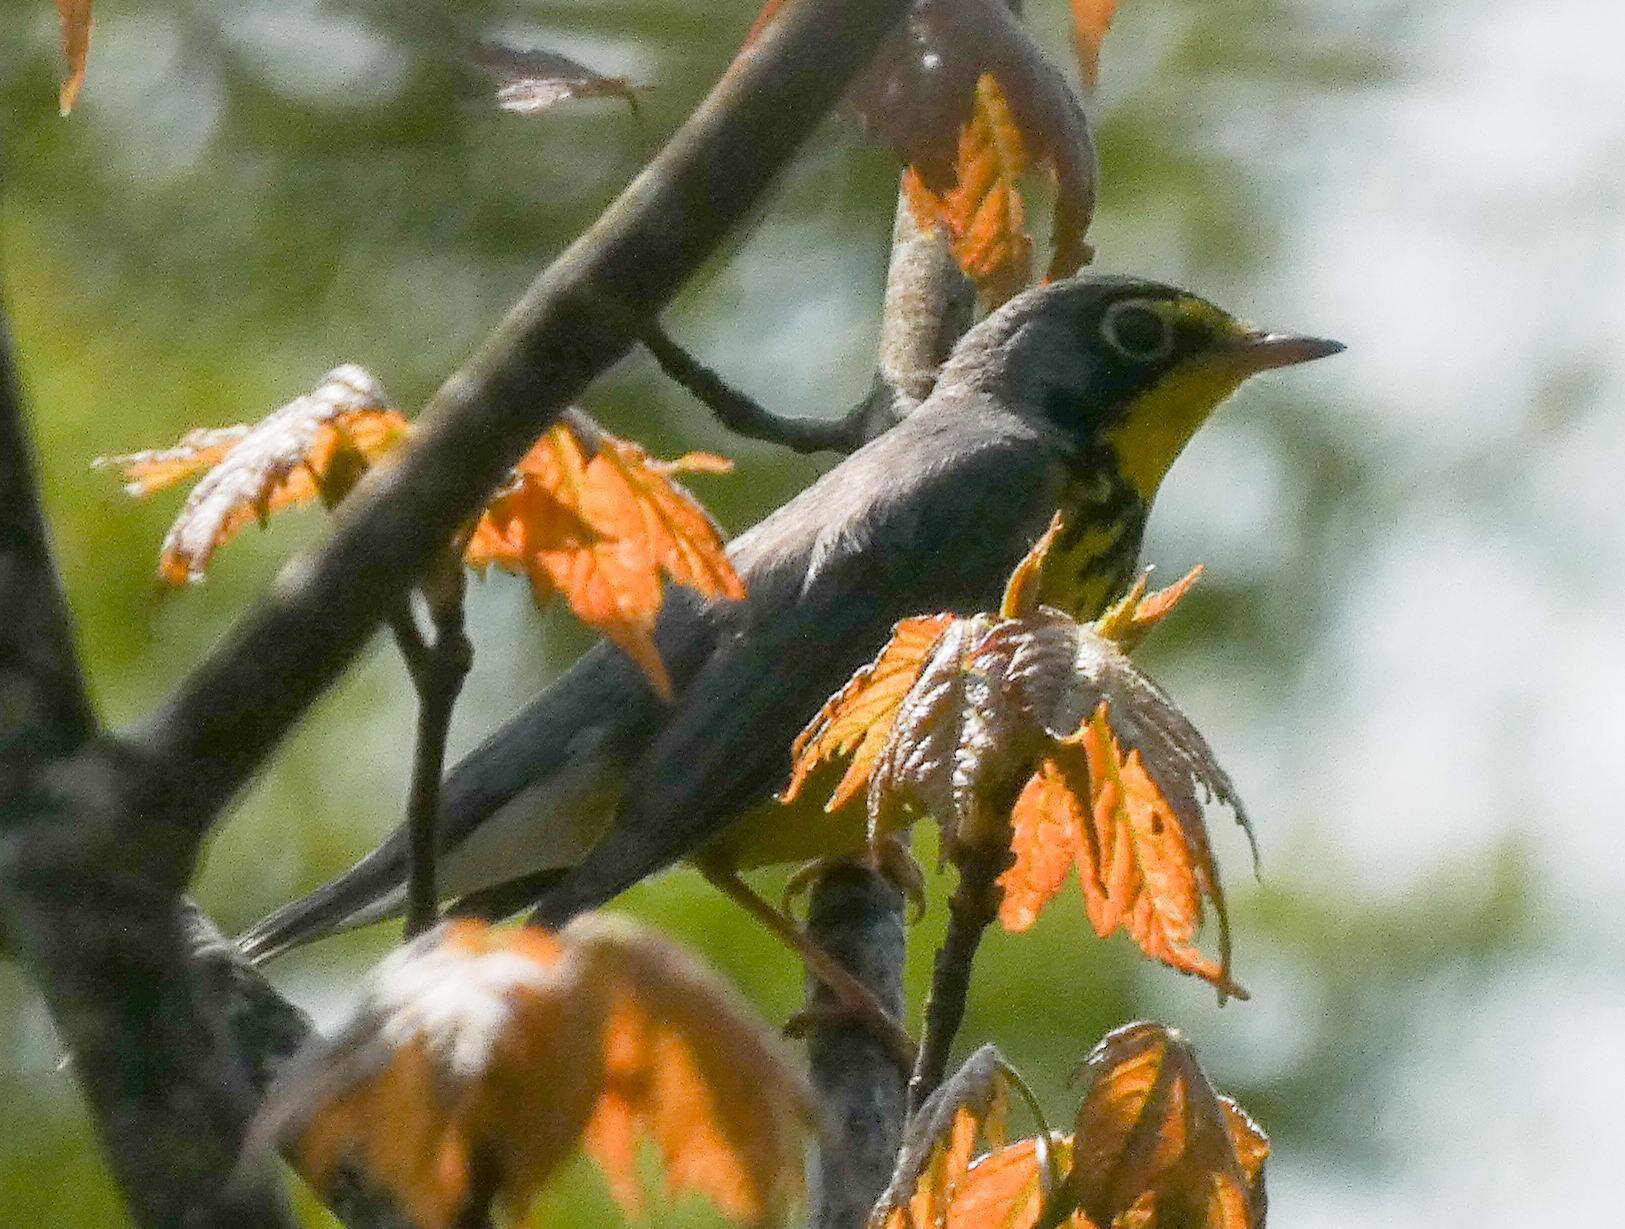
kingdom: Animalia
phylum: Chordata
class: Aves
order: Passeriformes
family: Parulidae
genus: Cardellina
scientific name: Cardellina canadensis
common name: Canada warbler
